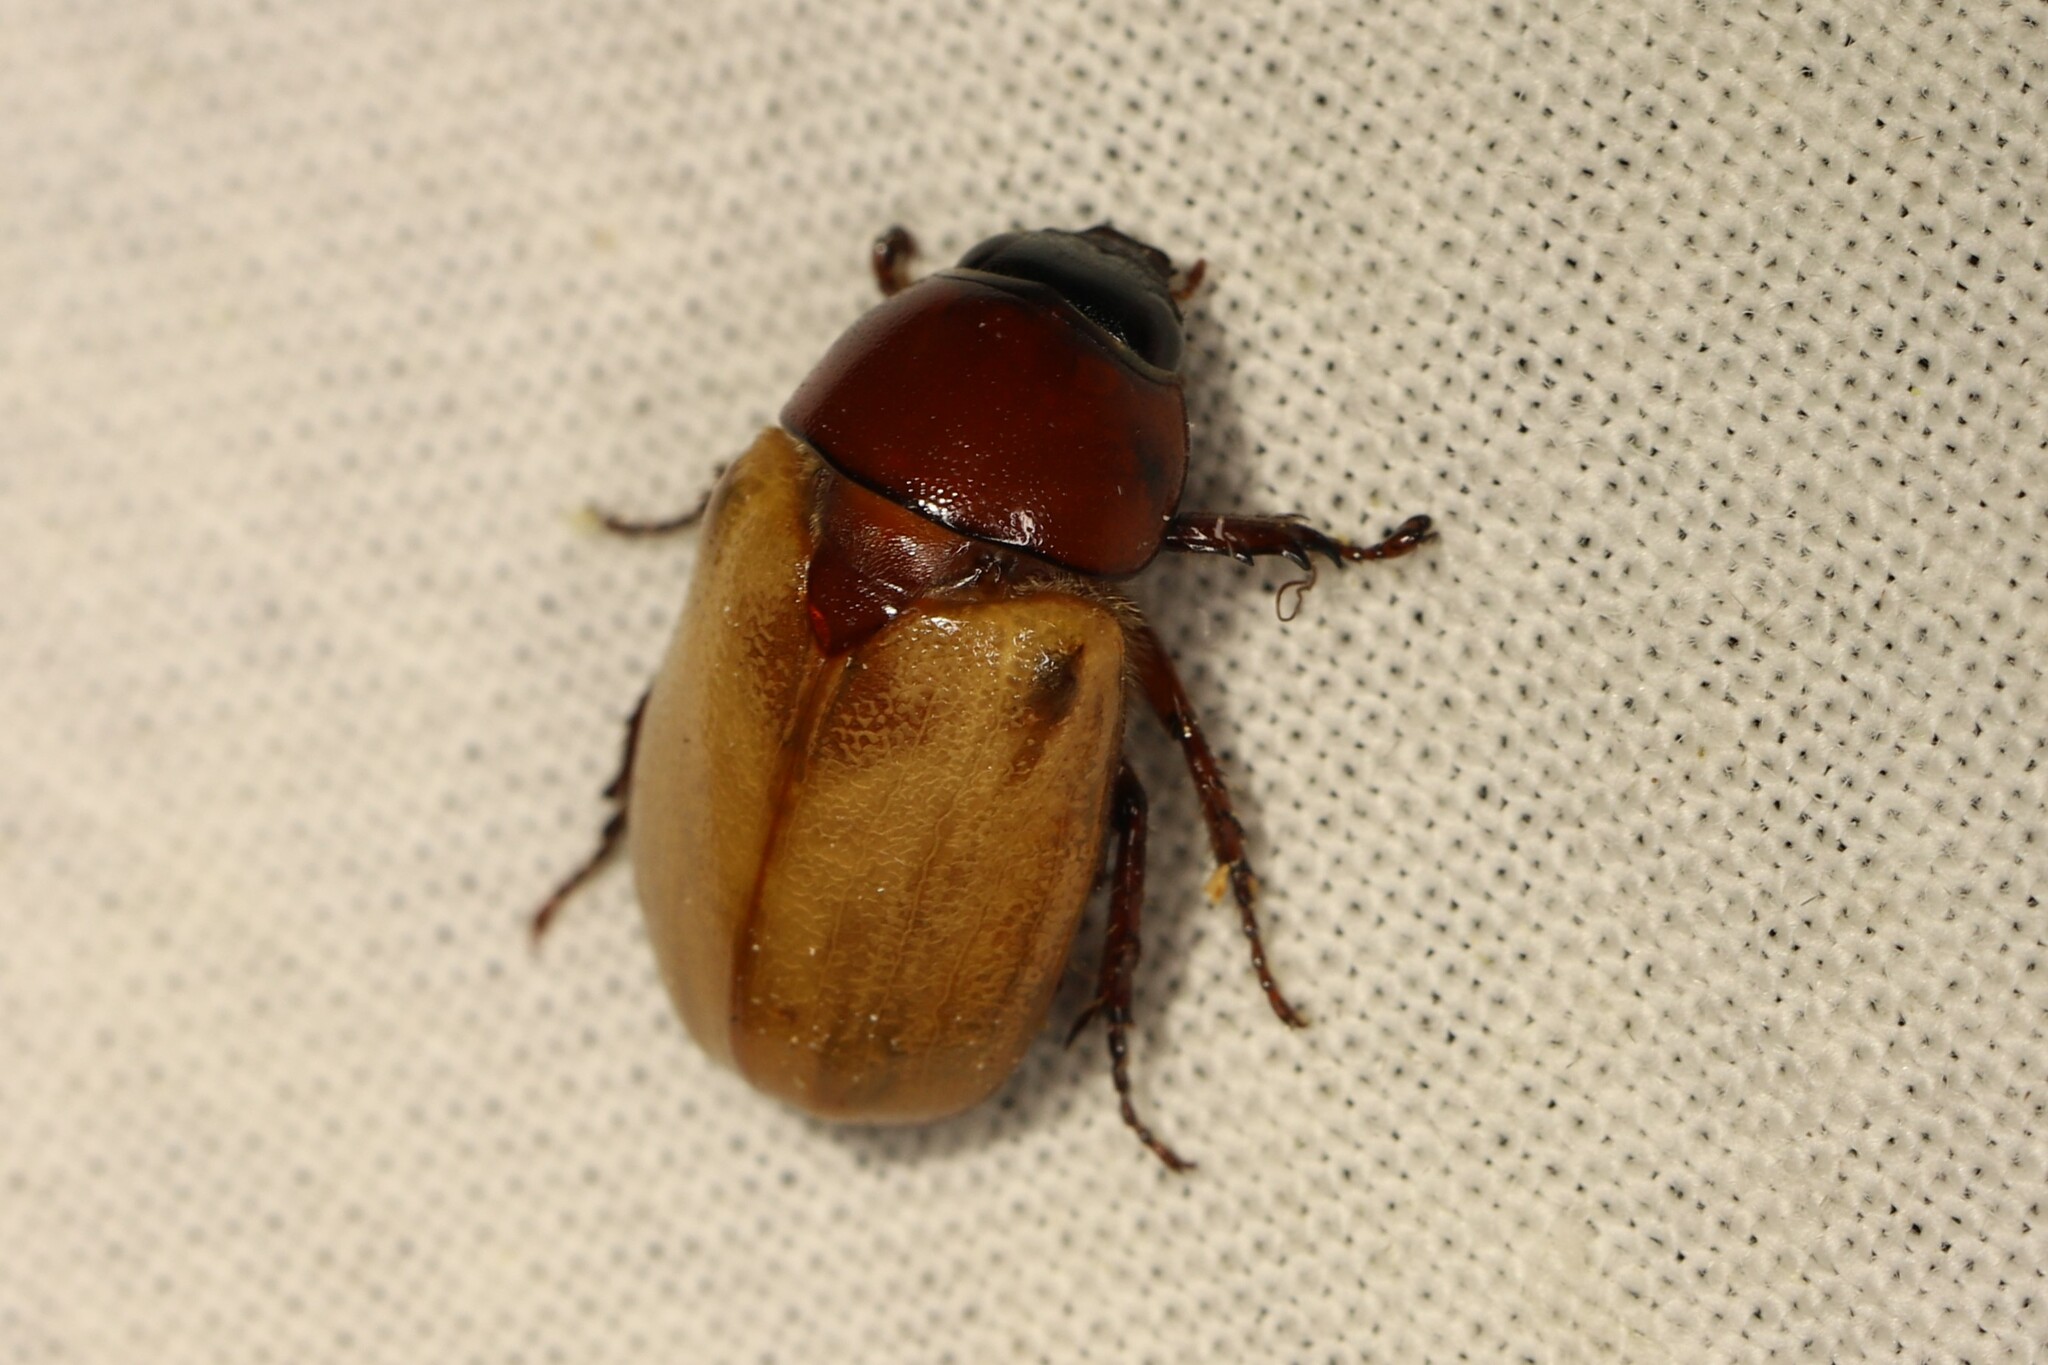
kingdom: Animalia
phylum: Arthropoda
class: Insecta
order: Coleoptera
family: Scarabaeidae
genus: Cyclocephala
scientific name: Cyclocephala melanocephala
